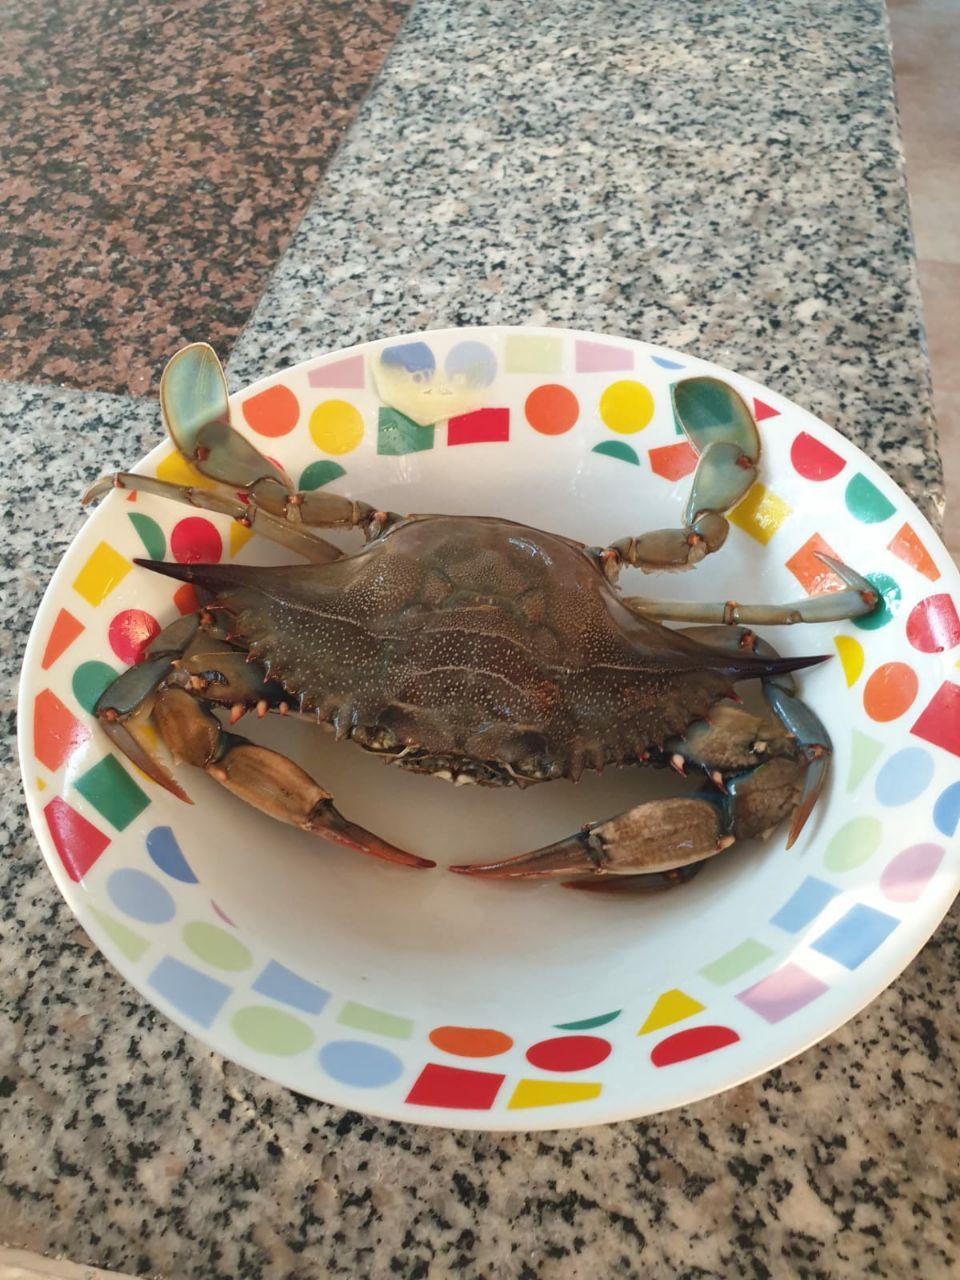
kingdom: Animalia
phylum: Arthropoda
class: Malacostraca
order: Decapoda
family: Portunidae
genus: Callinectes
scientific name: Callinectes sapidus
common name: Blue crab
